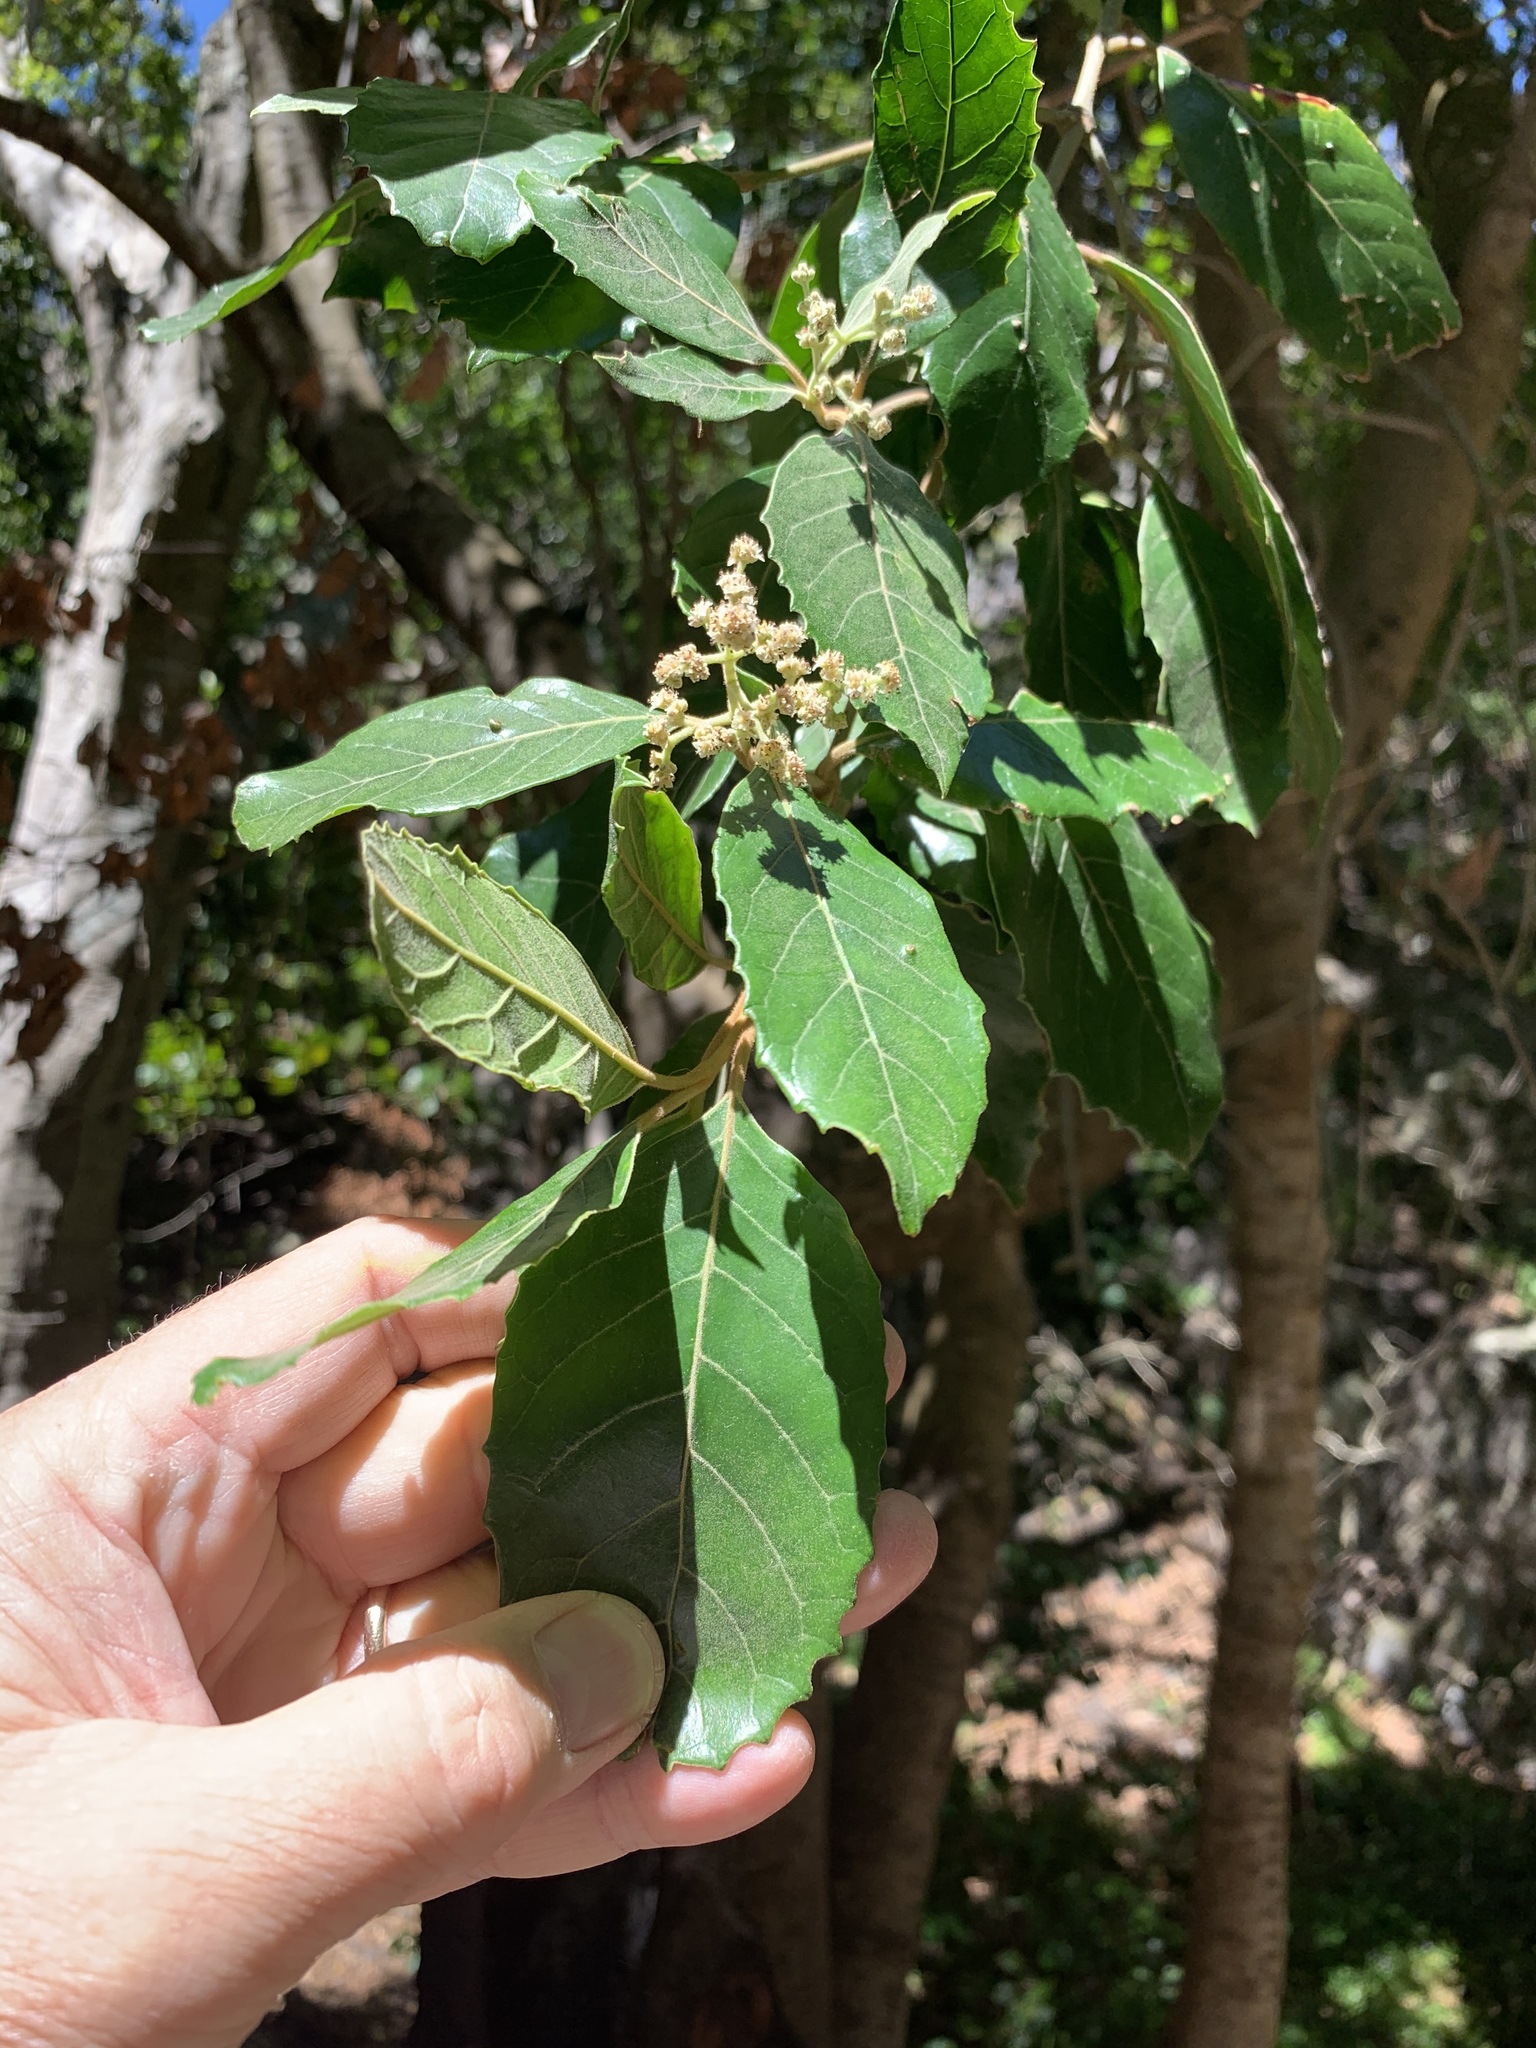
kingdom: Plantae
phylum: Tracheophyta
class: Magnoliopsida
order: Cornales
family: Curtisiaceae
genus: Curtisia
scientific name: Curtisia dentata
